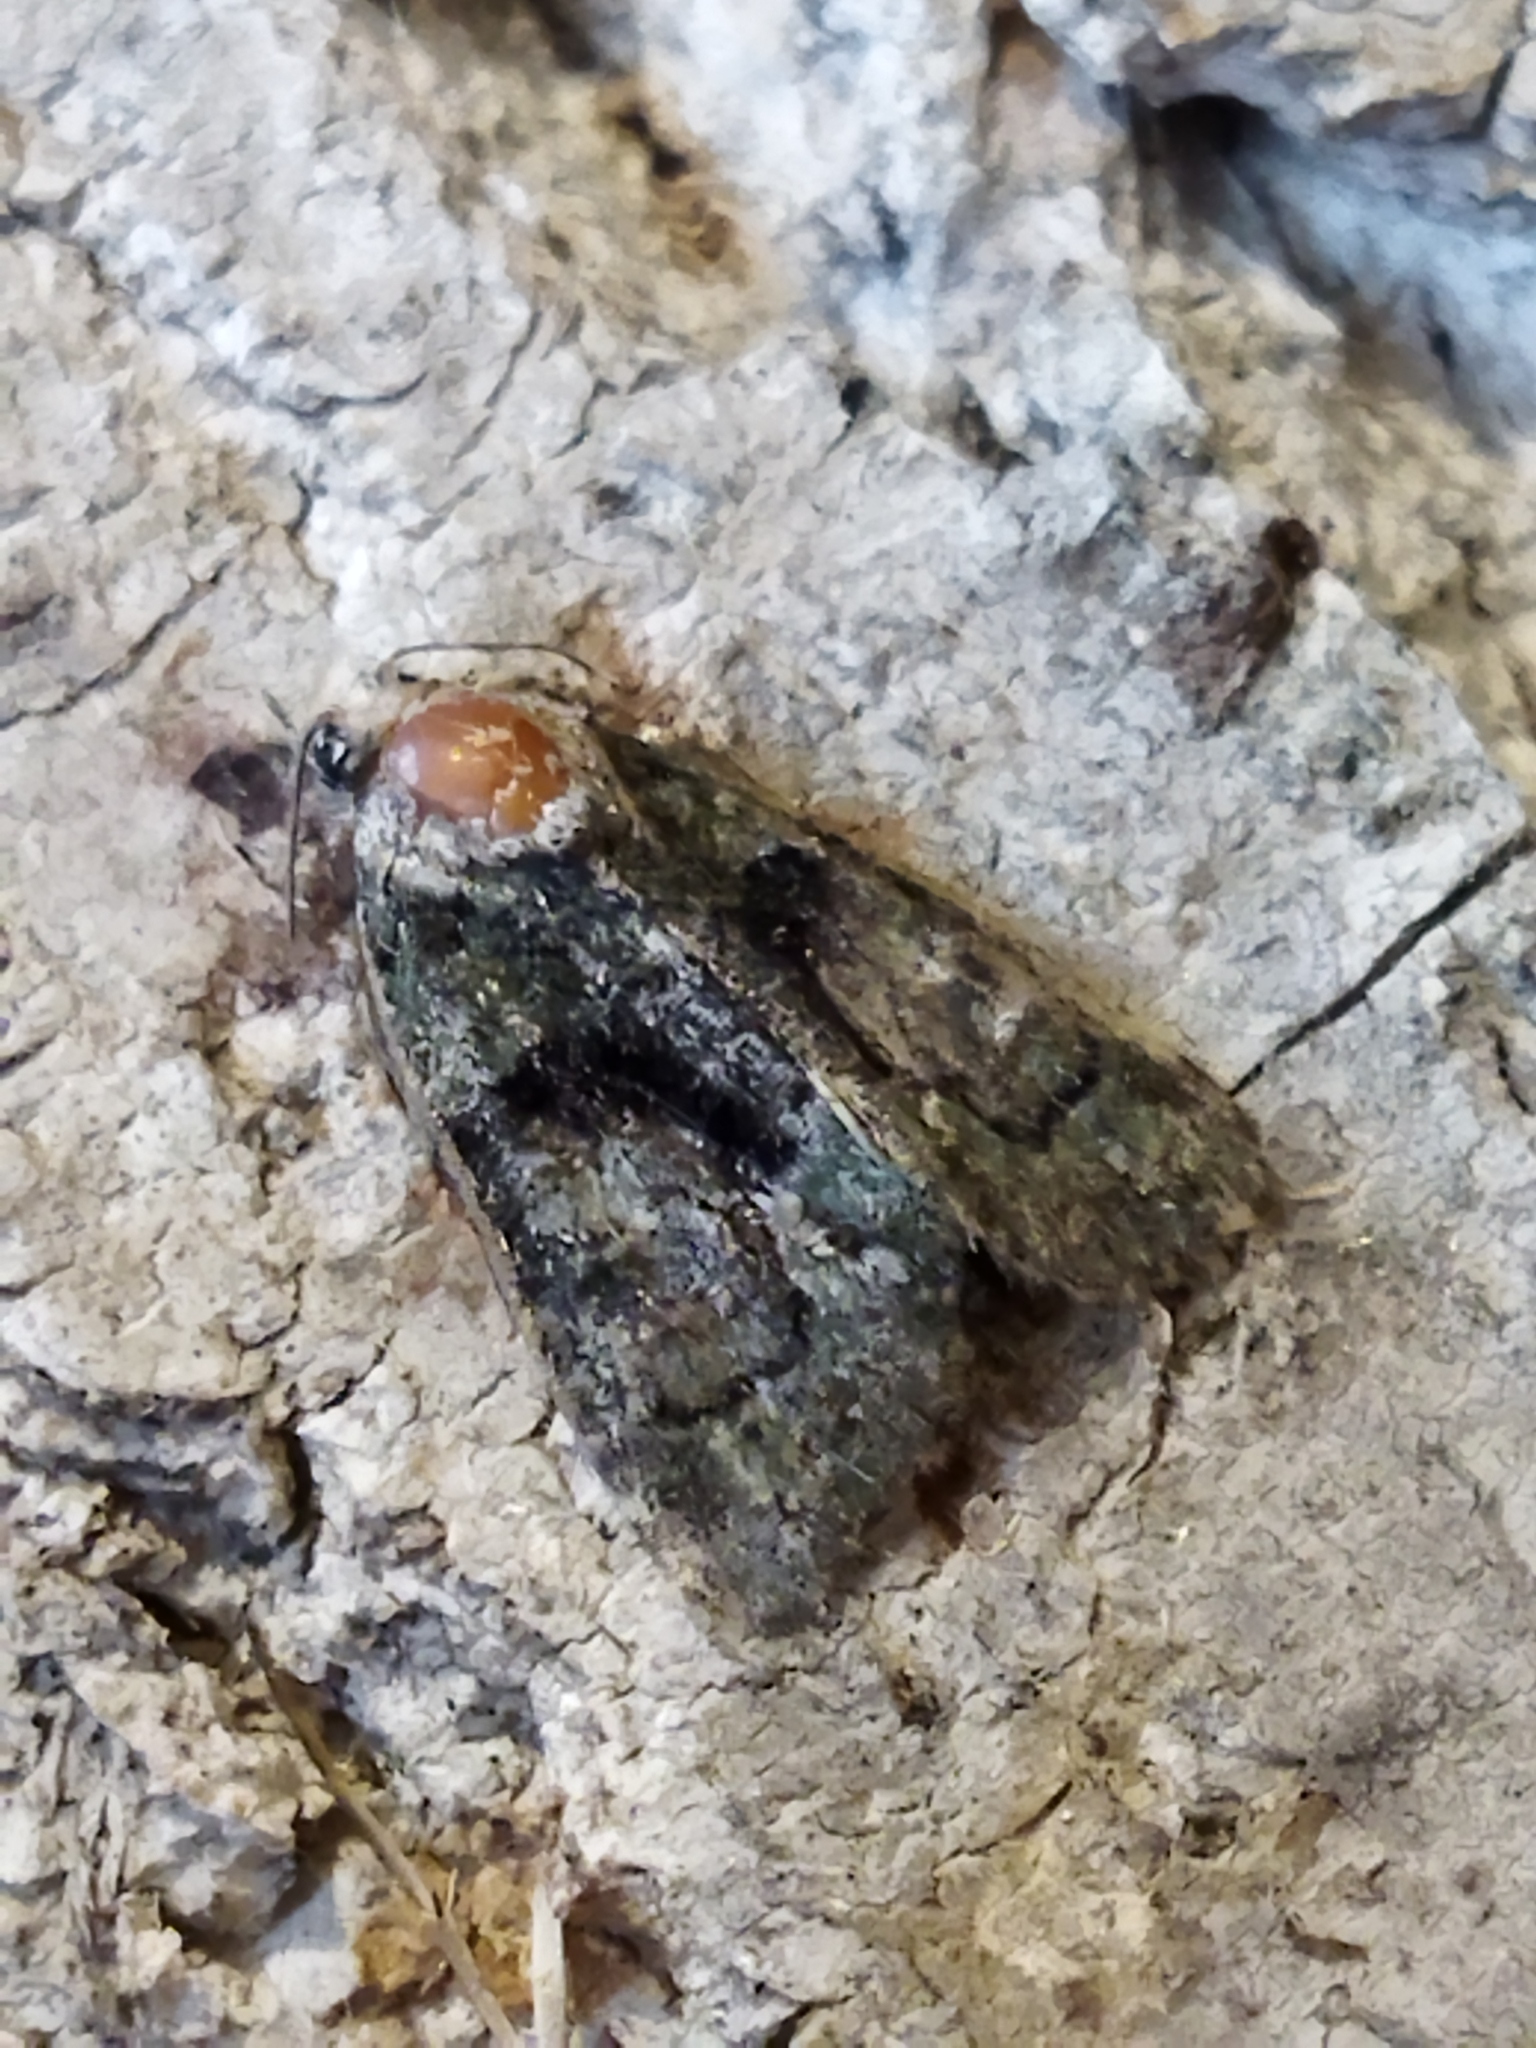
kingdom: Animalia
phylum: Arthropoda
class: Insecta
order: Lepidoptera
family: Noctuidae
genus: Cryphia
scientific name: Cryphia algae
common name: Tree-lichen beauty
